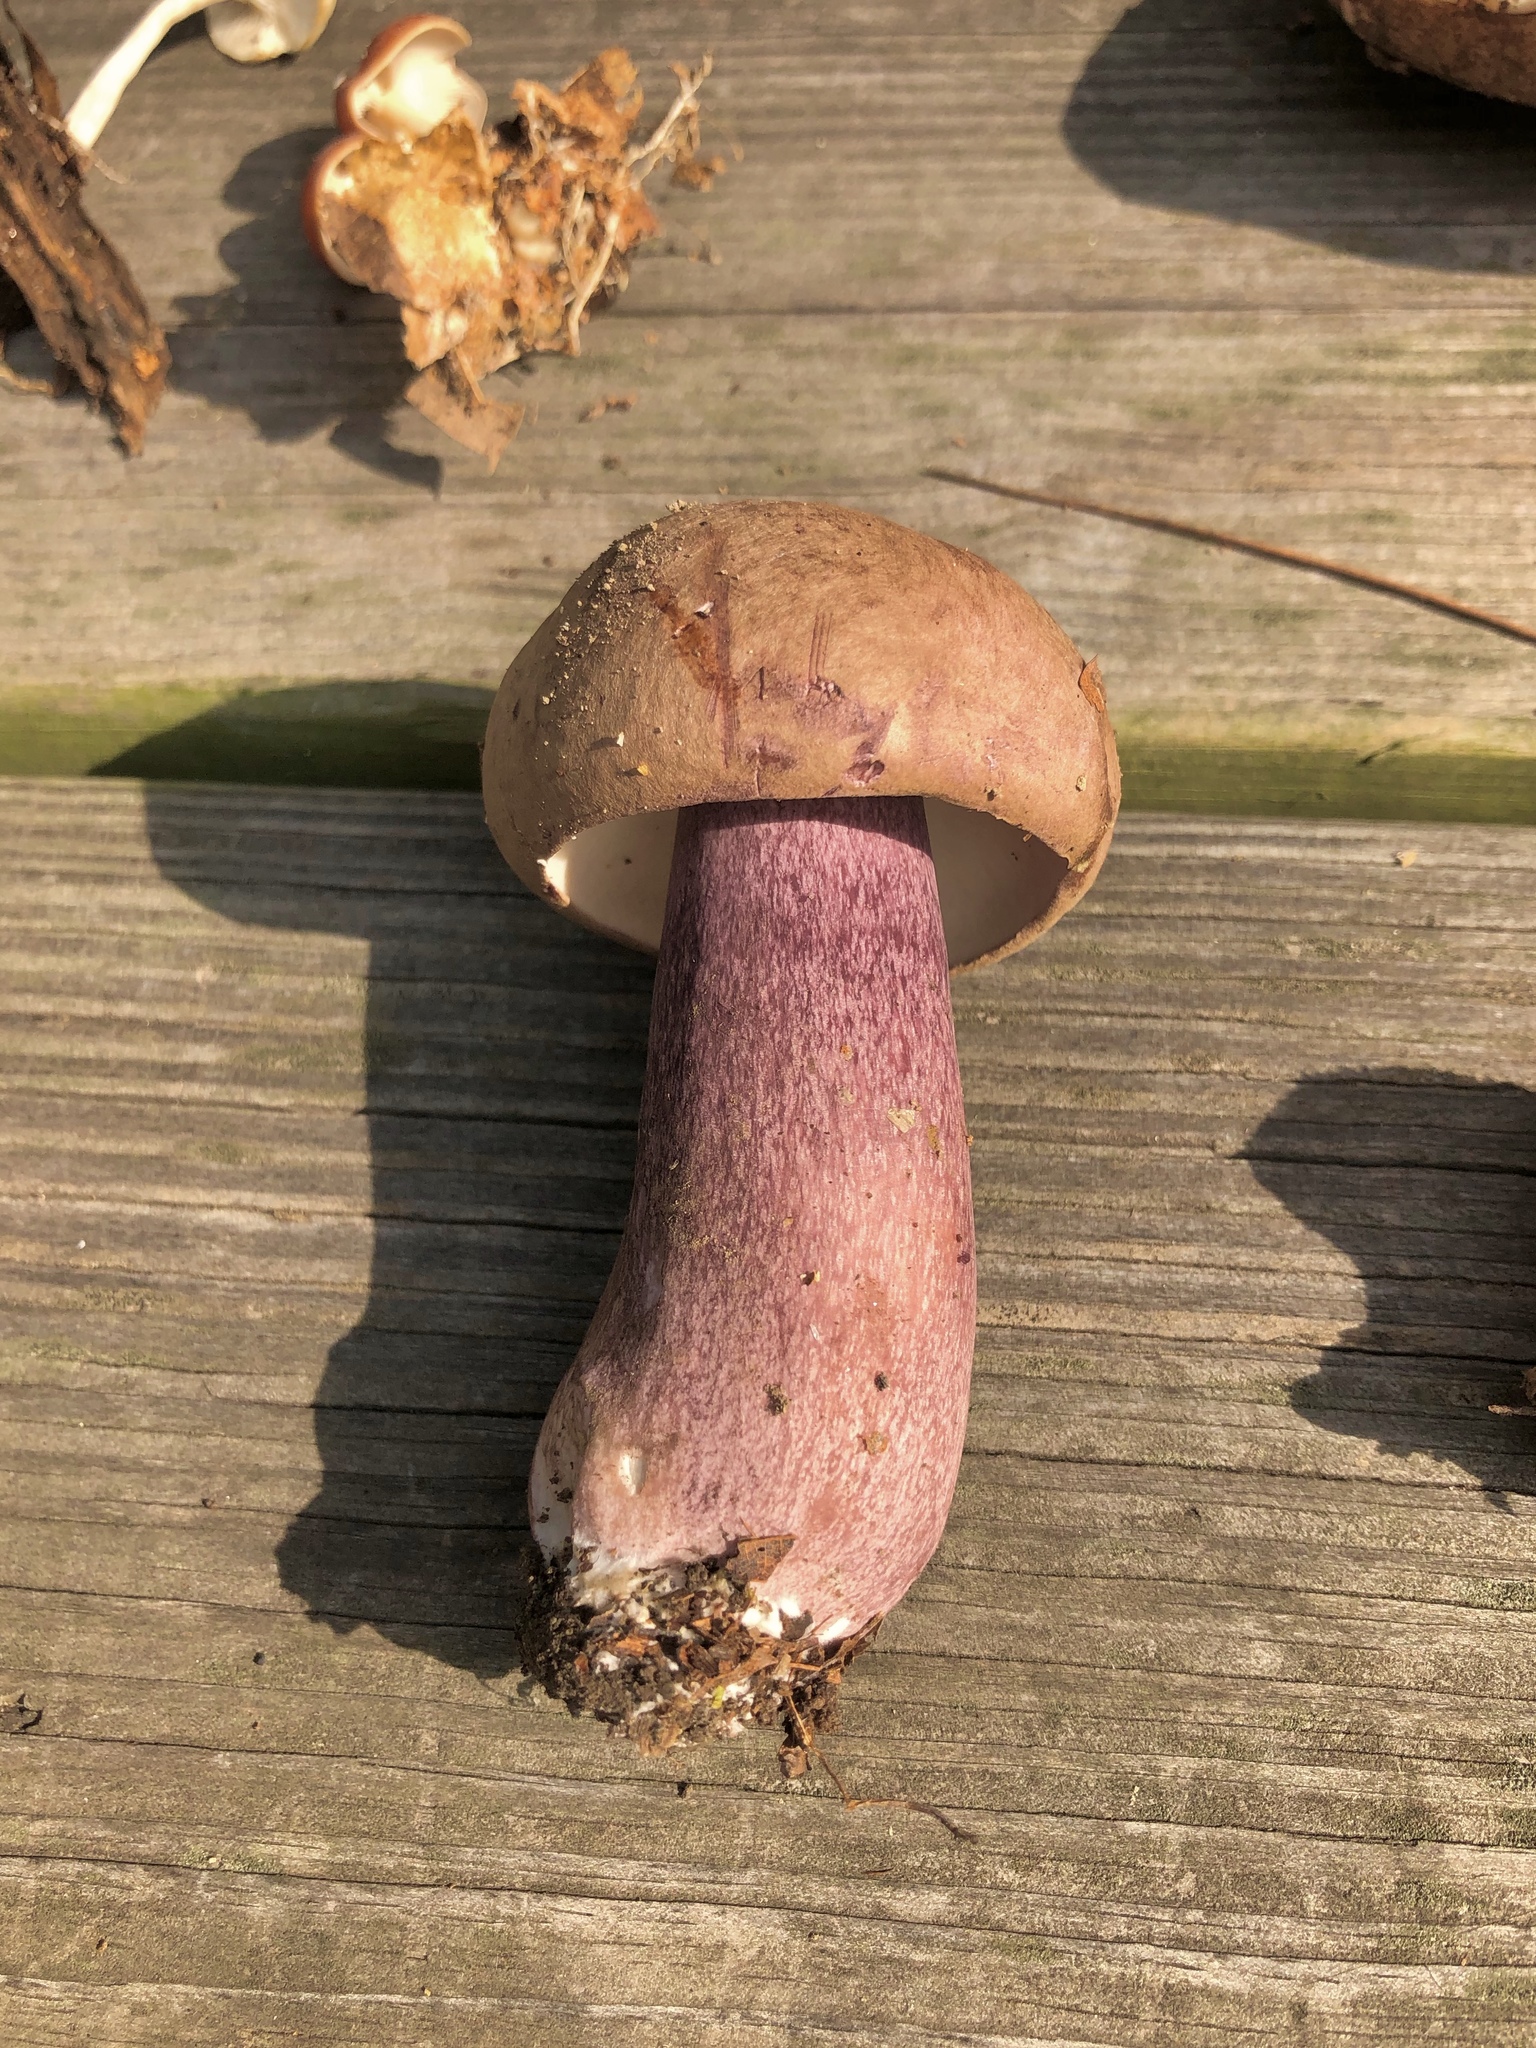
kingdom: Fungi
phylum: Basidiomycota
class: Agaricomycetes
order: Boletales
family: Boletaceae
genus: Tylopilus
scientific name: Tylopilus plumbeoviolaceus
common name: Violet gray bolete
